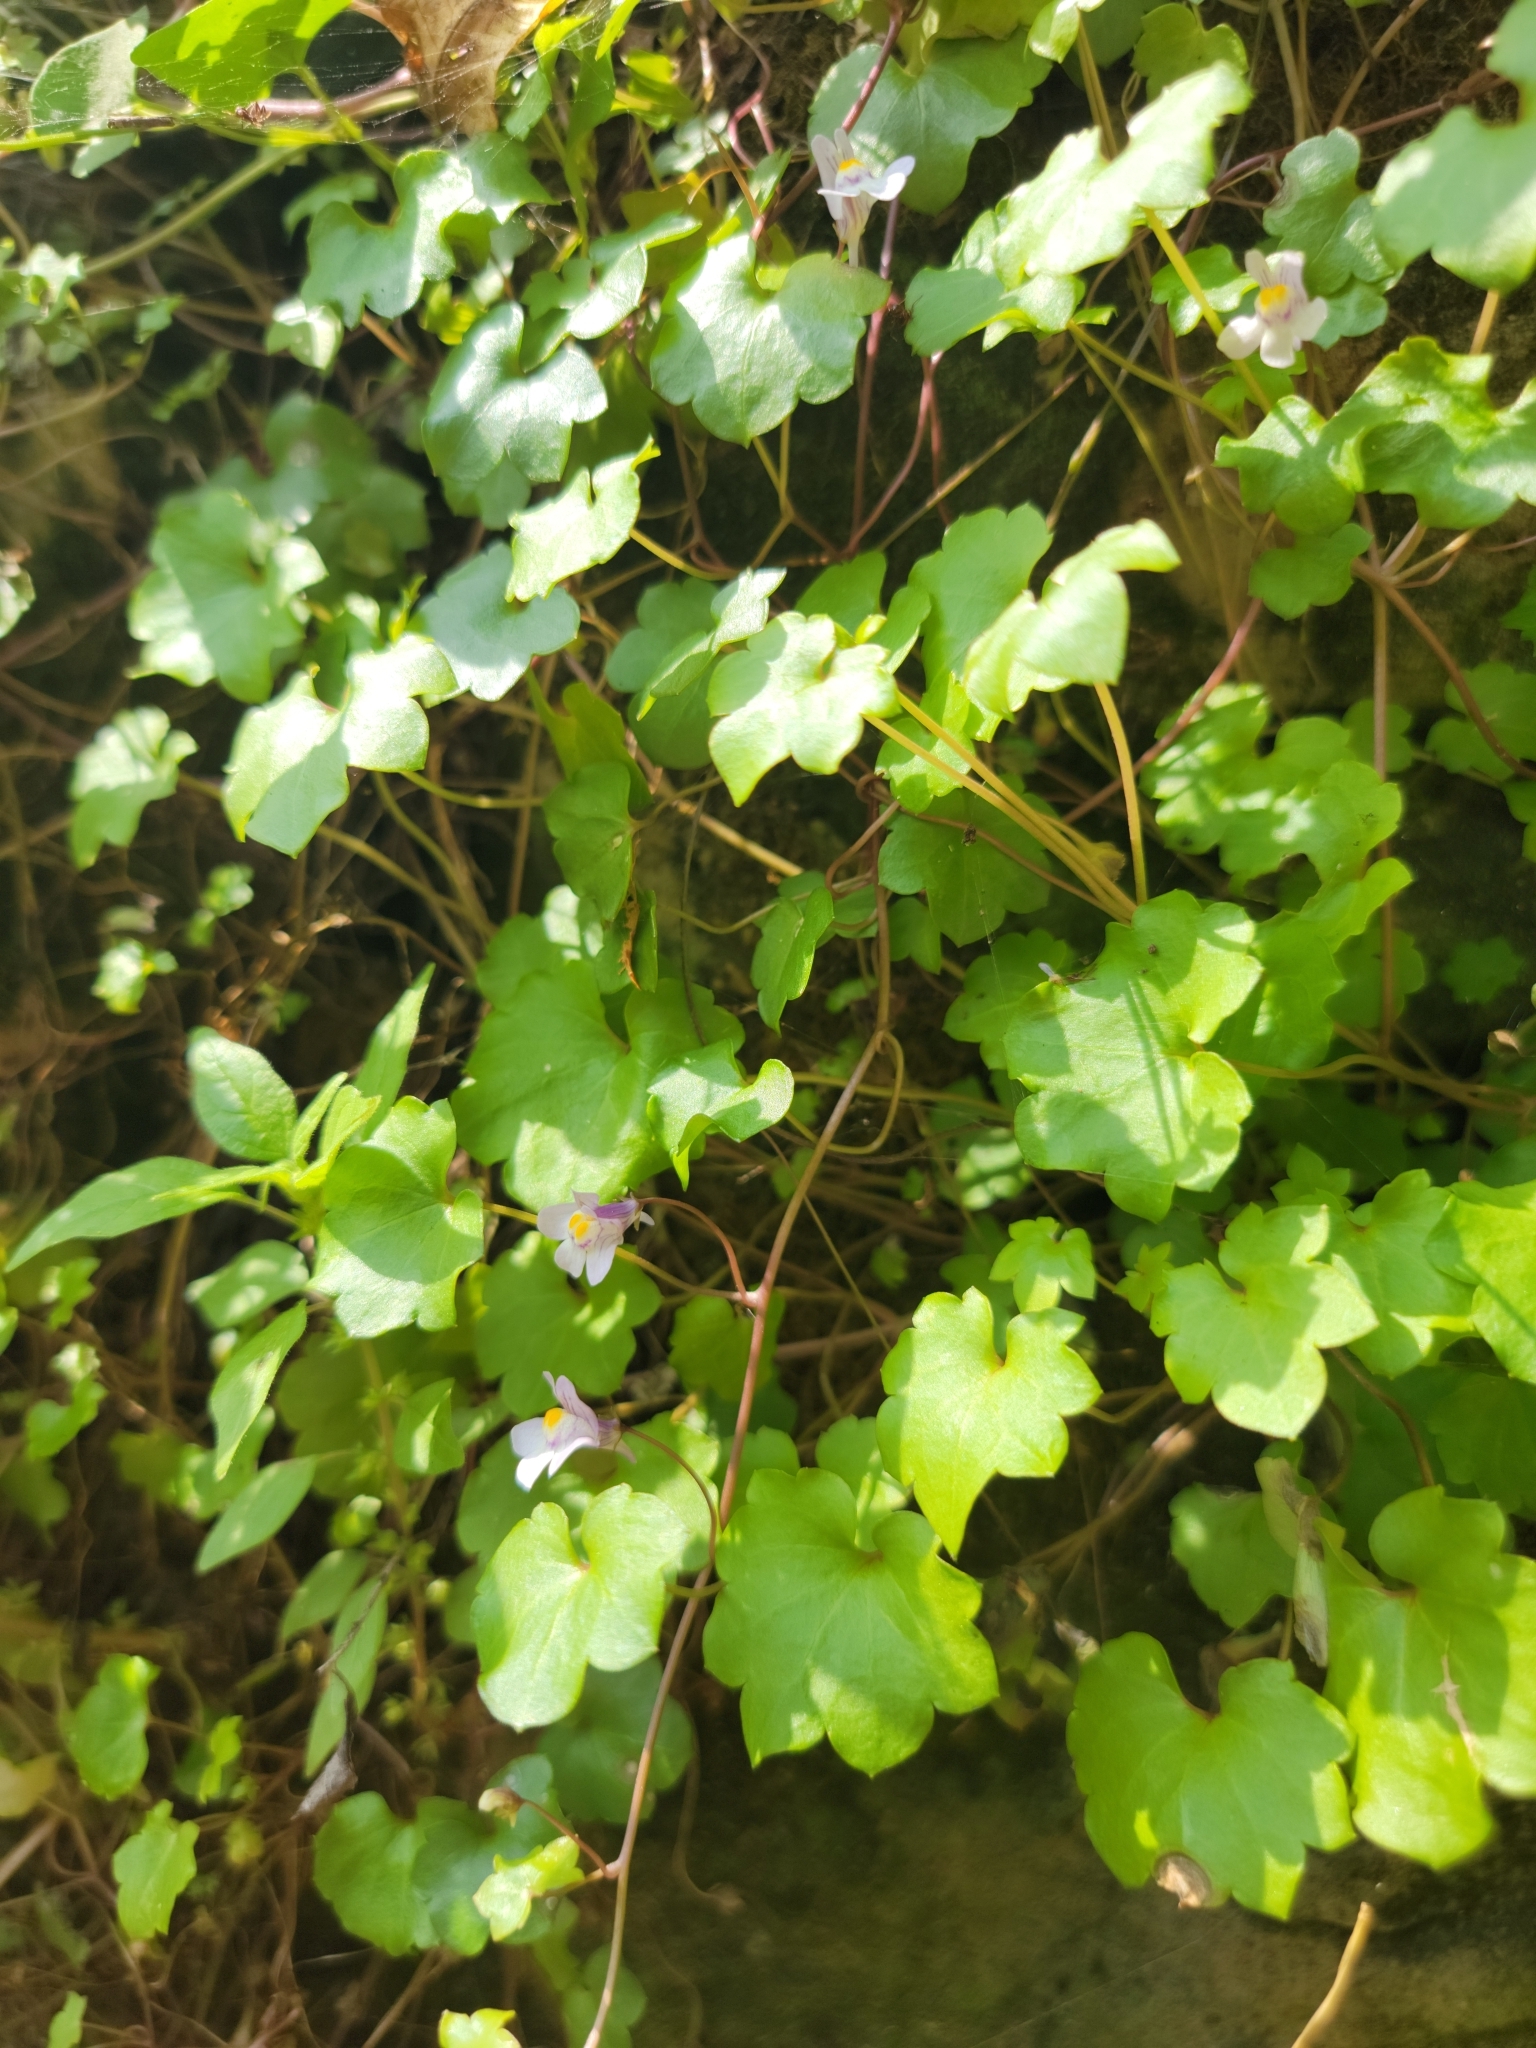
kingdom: Plantae
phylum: Tracheophyta
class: Magnoliopsida
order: Lamiales
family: Plantaginaceae
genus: Cymbalaria
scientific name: Cymbalaria muralis
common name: Ivy-leaved toadflax
